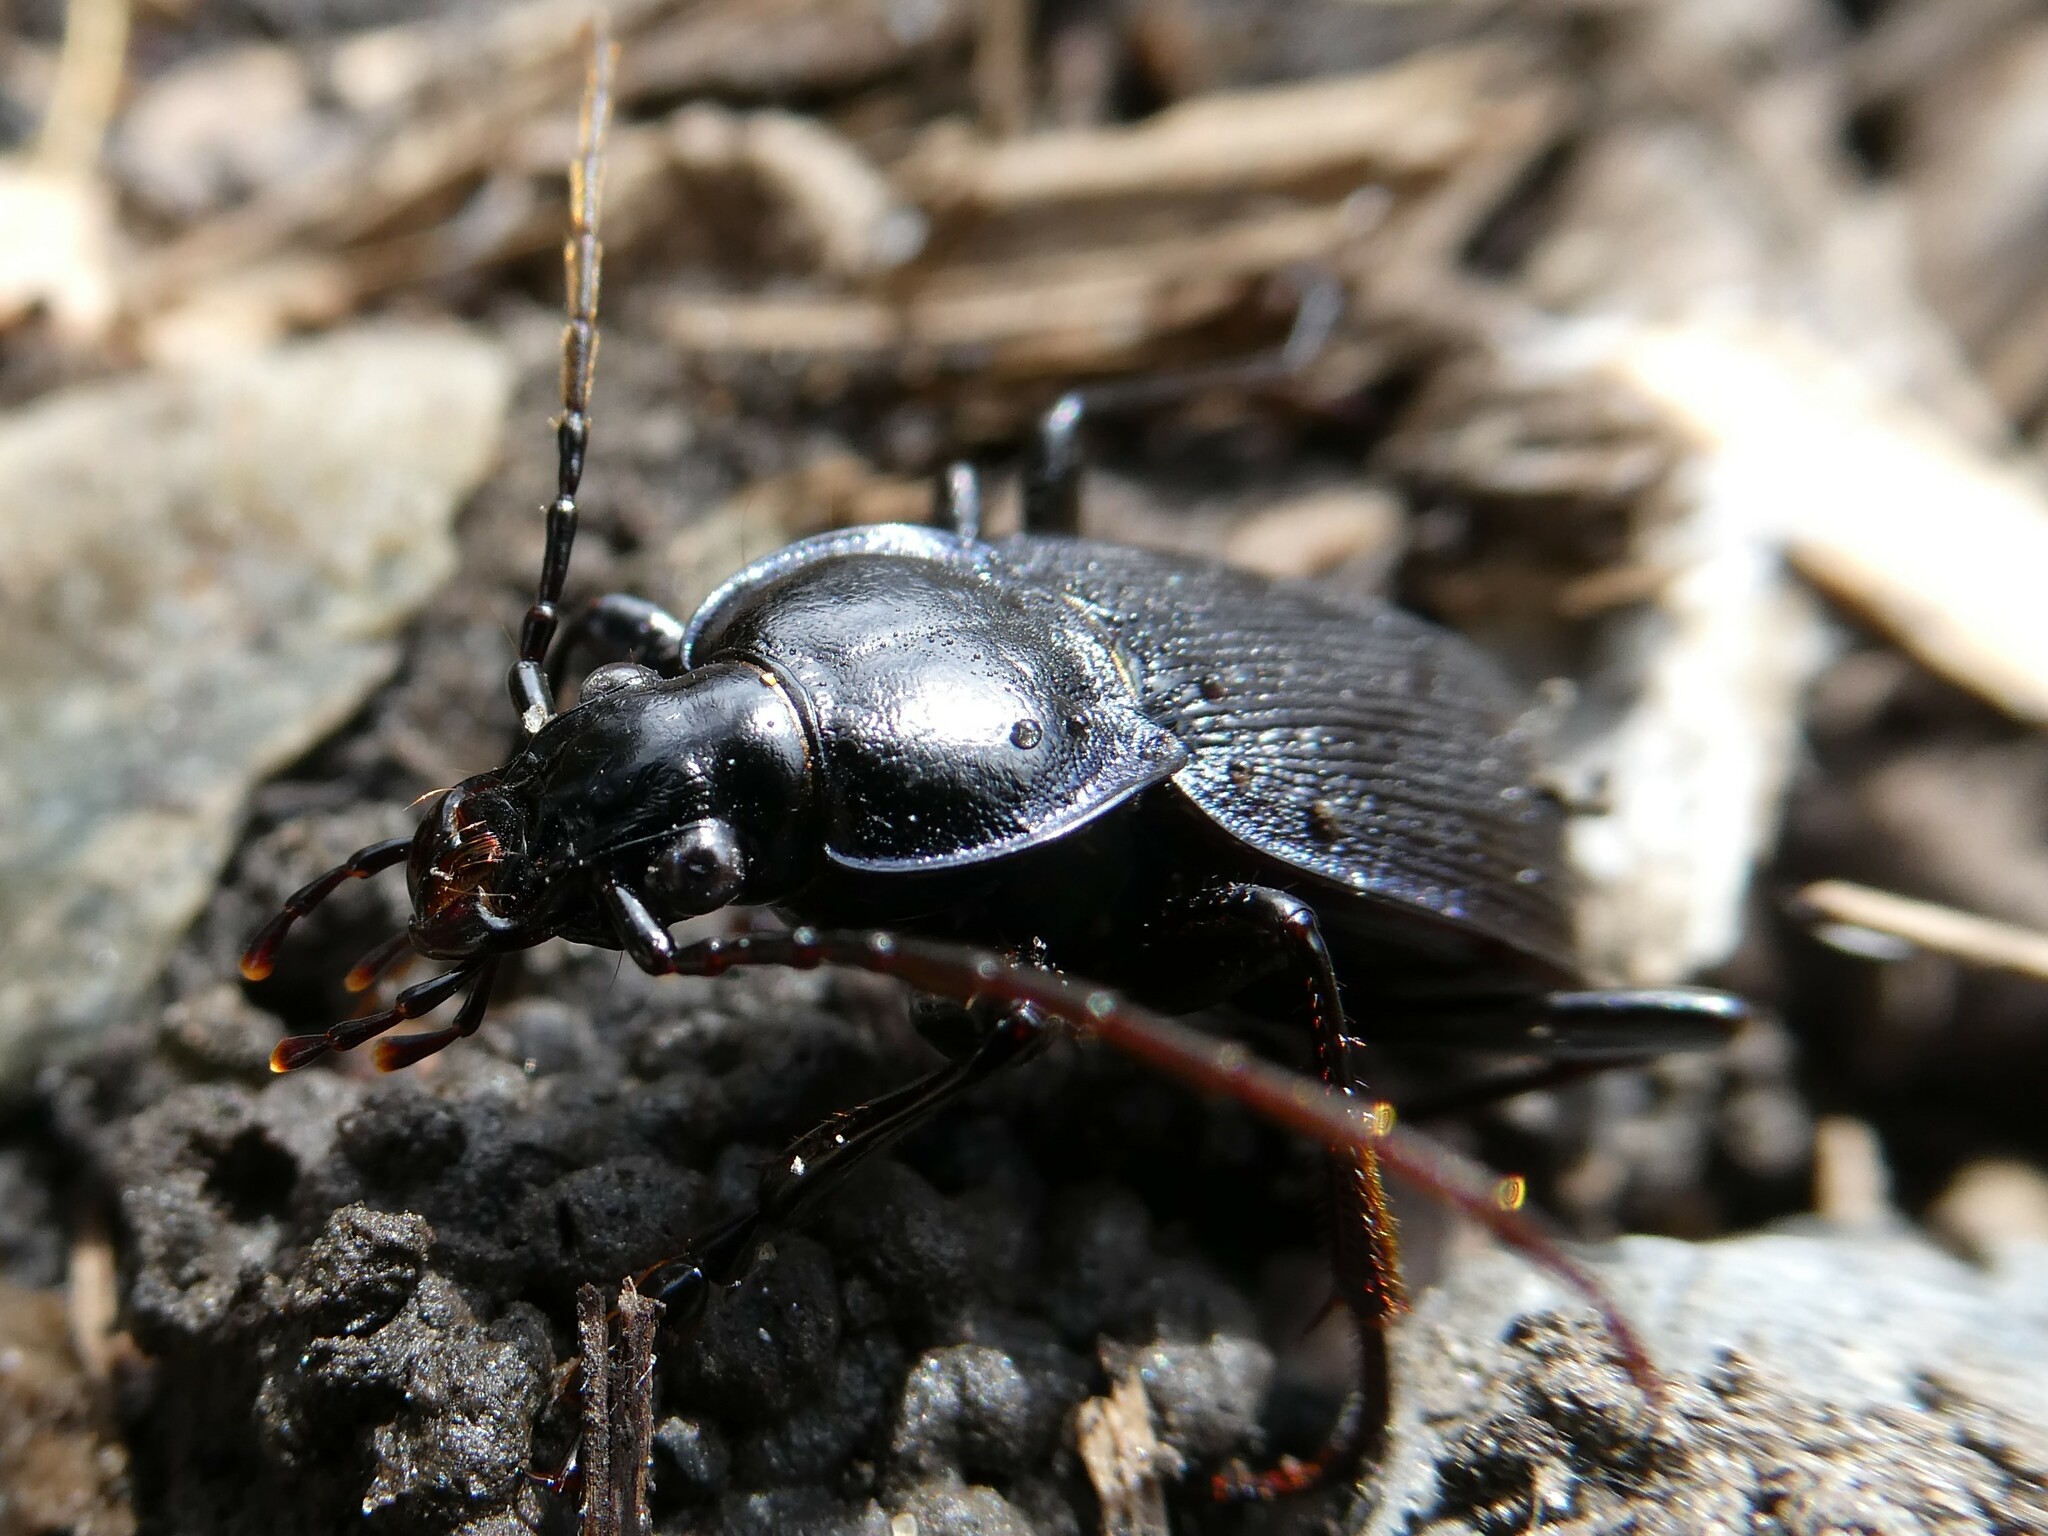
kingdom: Animalia
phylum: Arthropoda
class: Insecta
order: Coleoptera
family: Carabidae
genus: Carabus
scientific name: Carabus goryi
